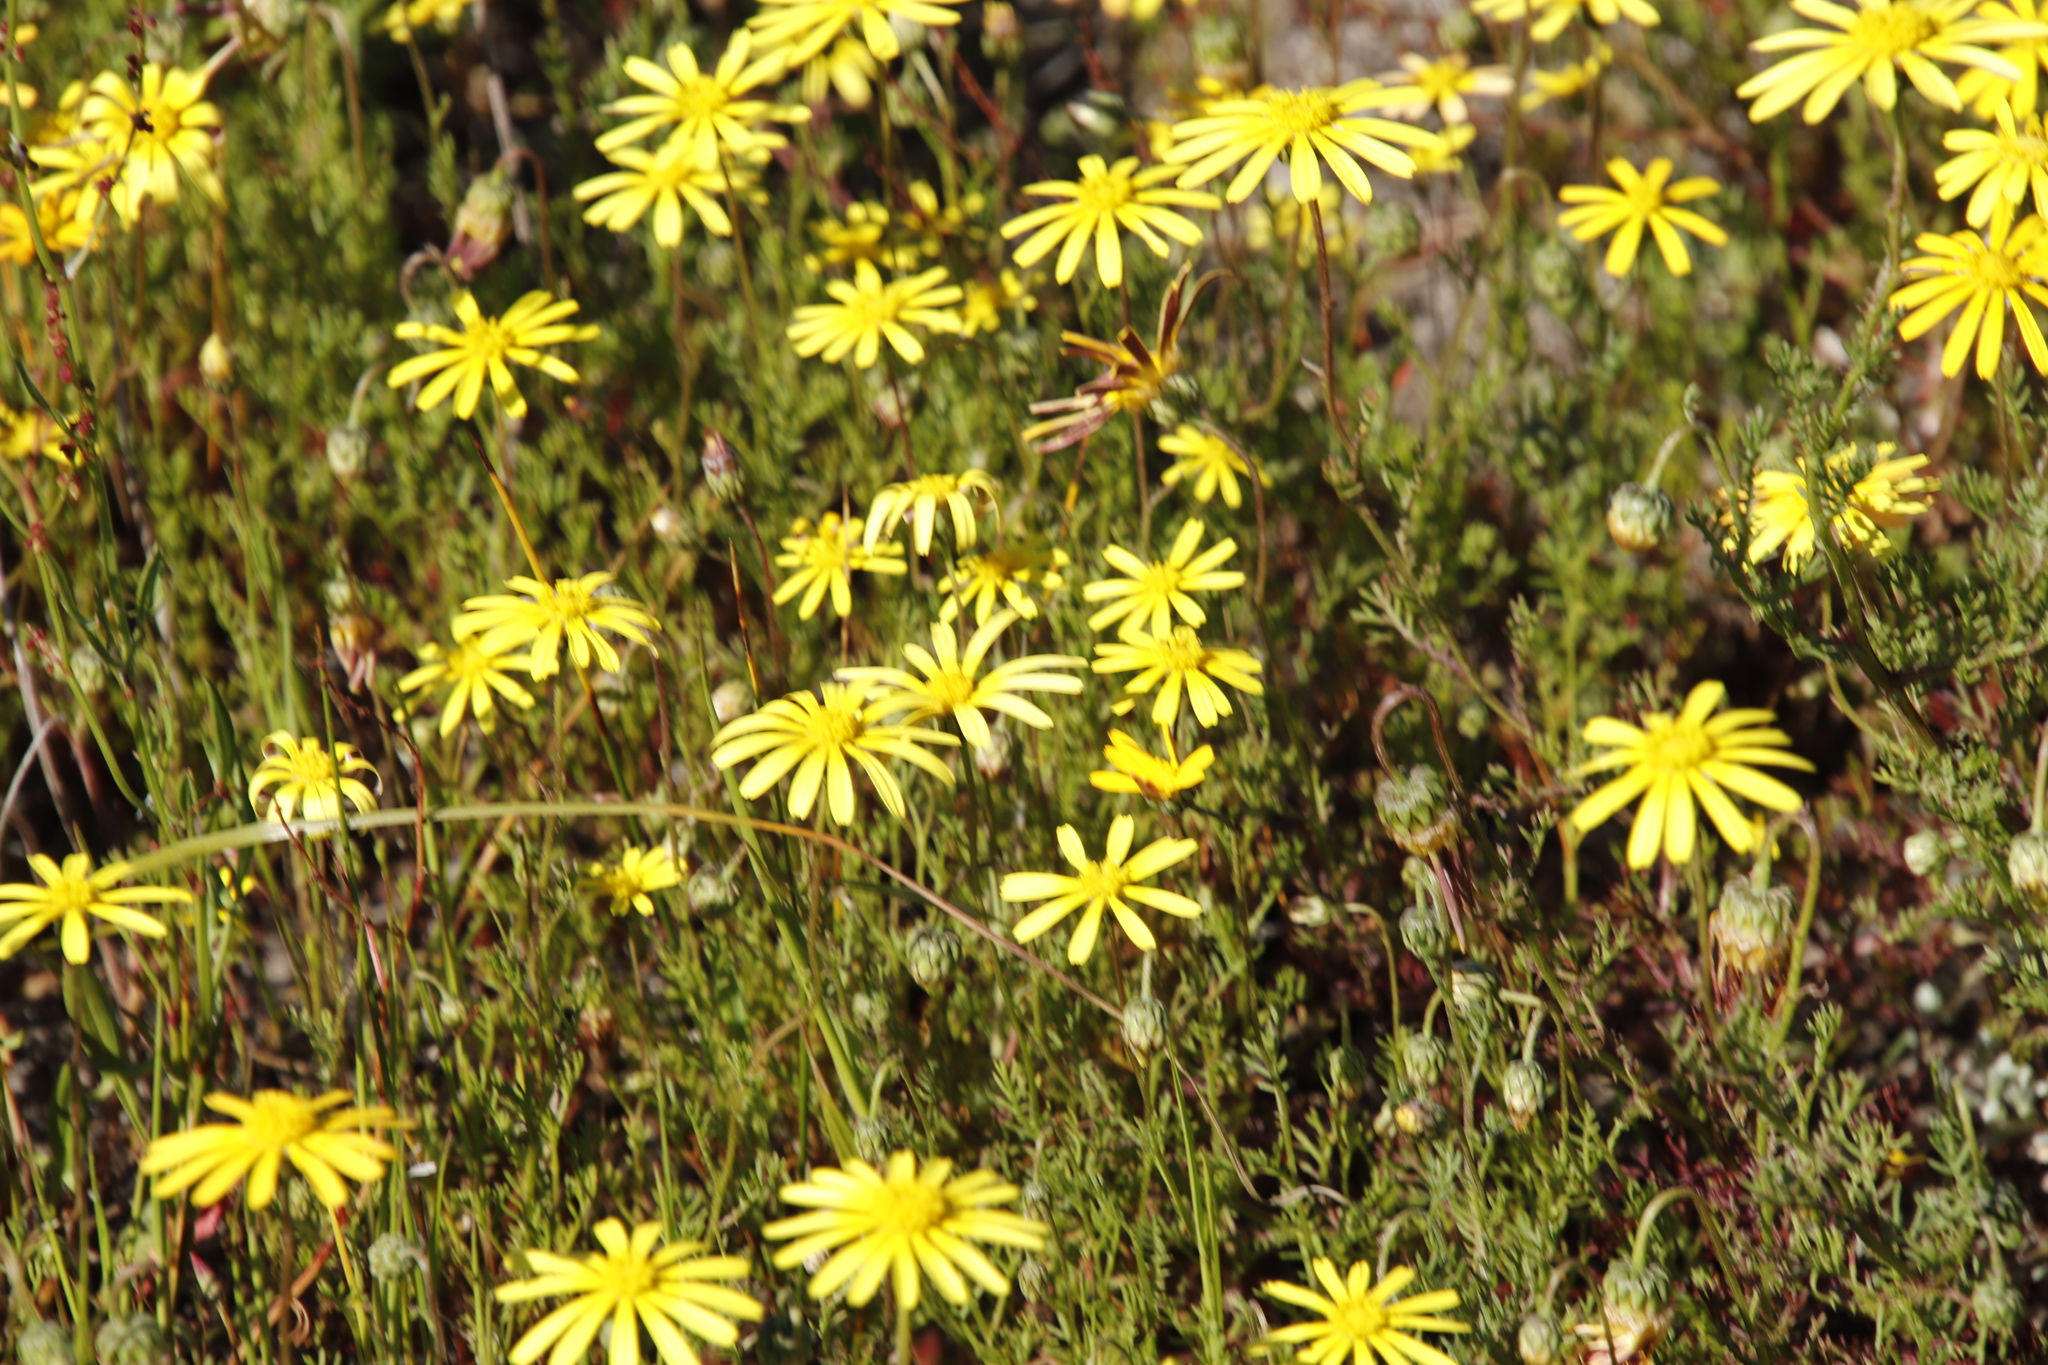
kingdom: Plantae
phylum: Tracheophyta
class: Magnoliopsida
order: Asterales
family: Asteraceae
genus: Ursinia
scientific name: Ursinia anthemoides
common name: Ursinia
